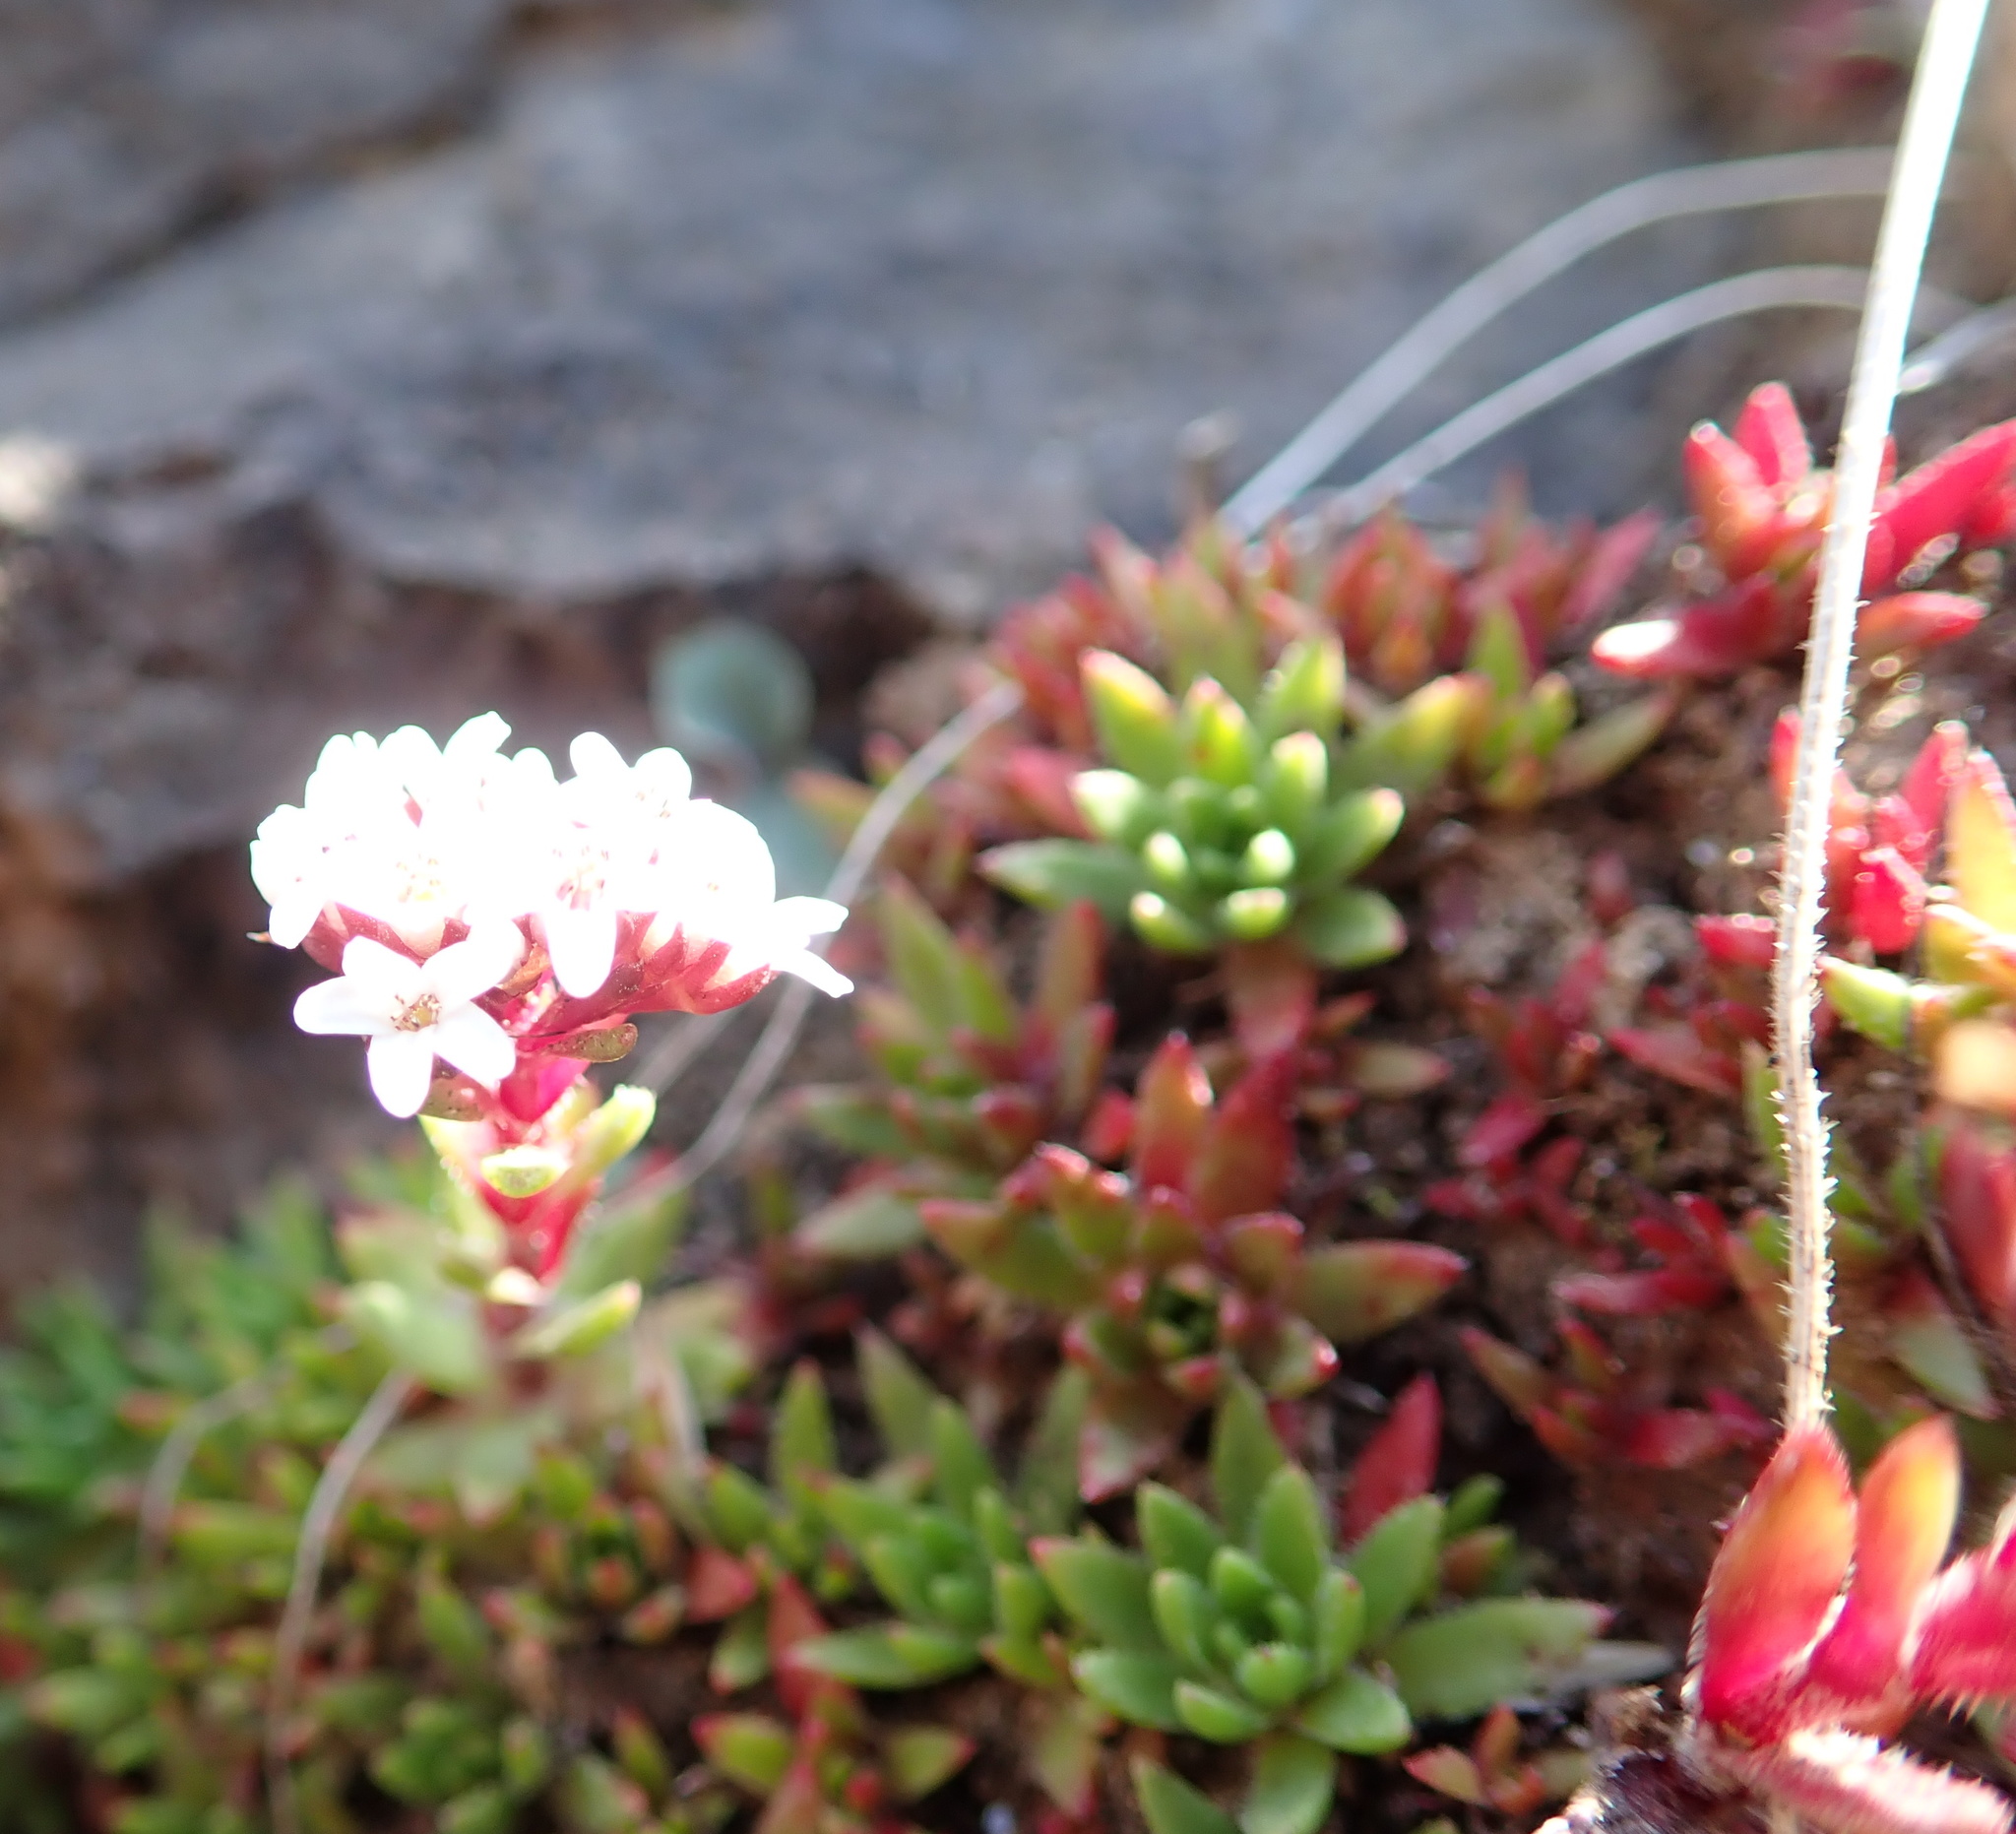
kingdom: Plantae
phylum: Tracheophyta
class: Magnoliopsida
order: Saxifragales
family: Crassulaceae
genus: Crassula
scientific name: Crassula setulosa
